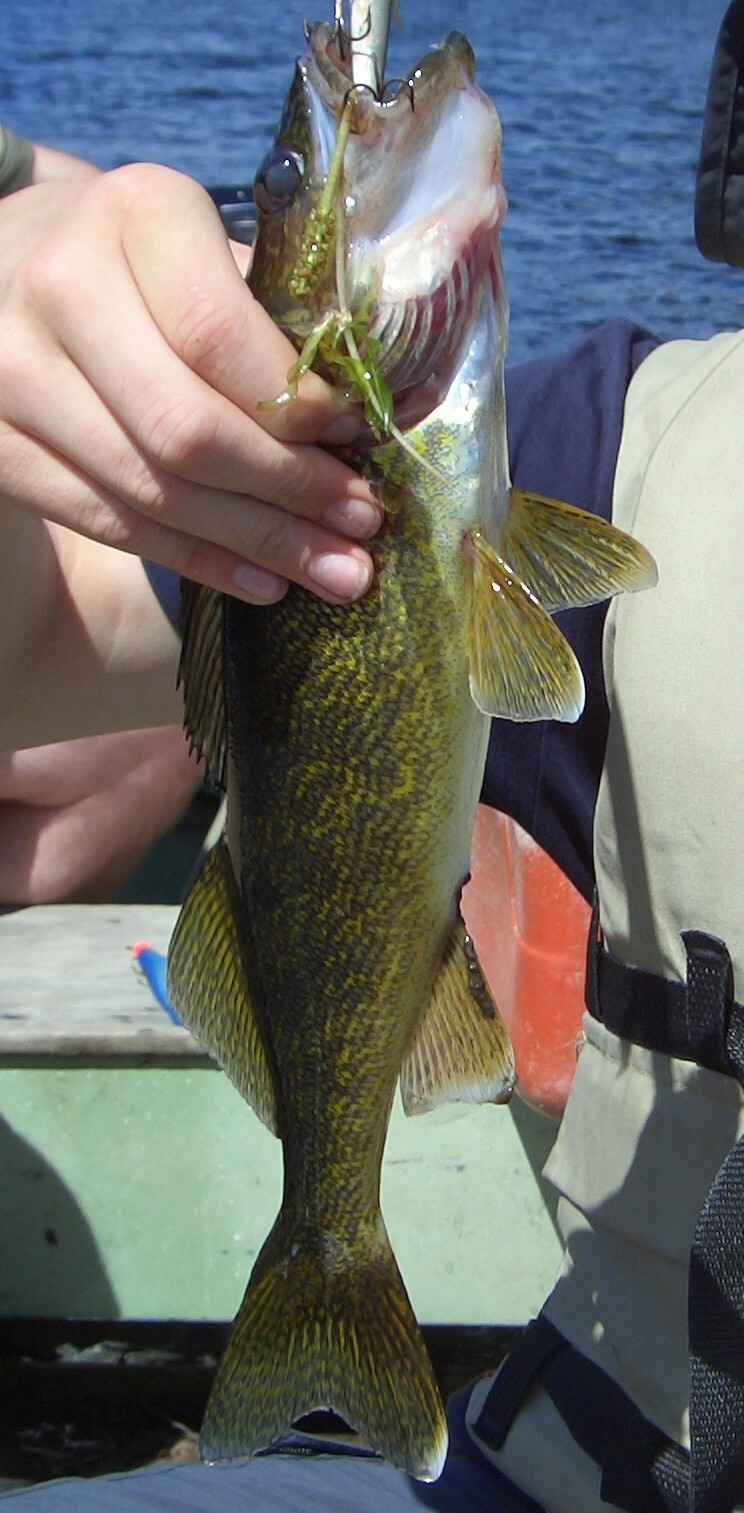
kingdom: Animalia
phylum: Chordata
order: Perciformes
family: Percidae
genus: Sander
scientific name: Sander vitreus
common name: Walleye
